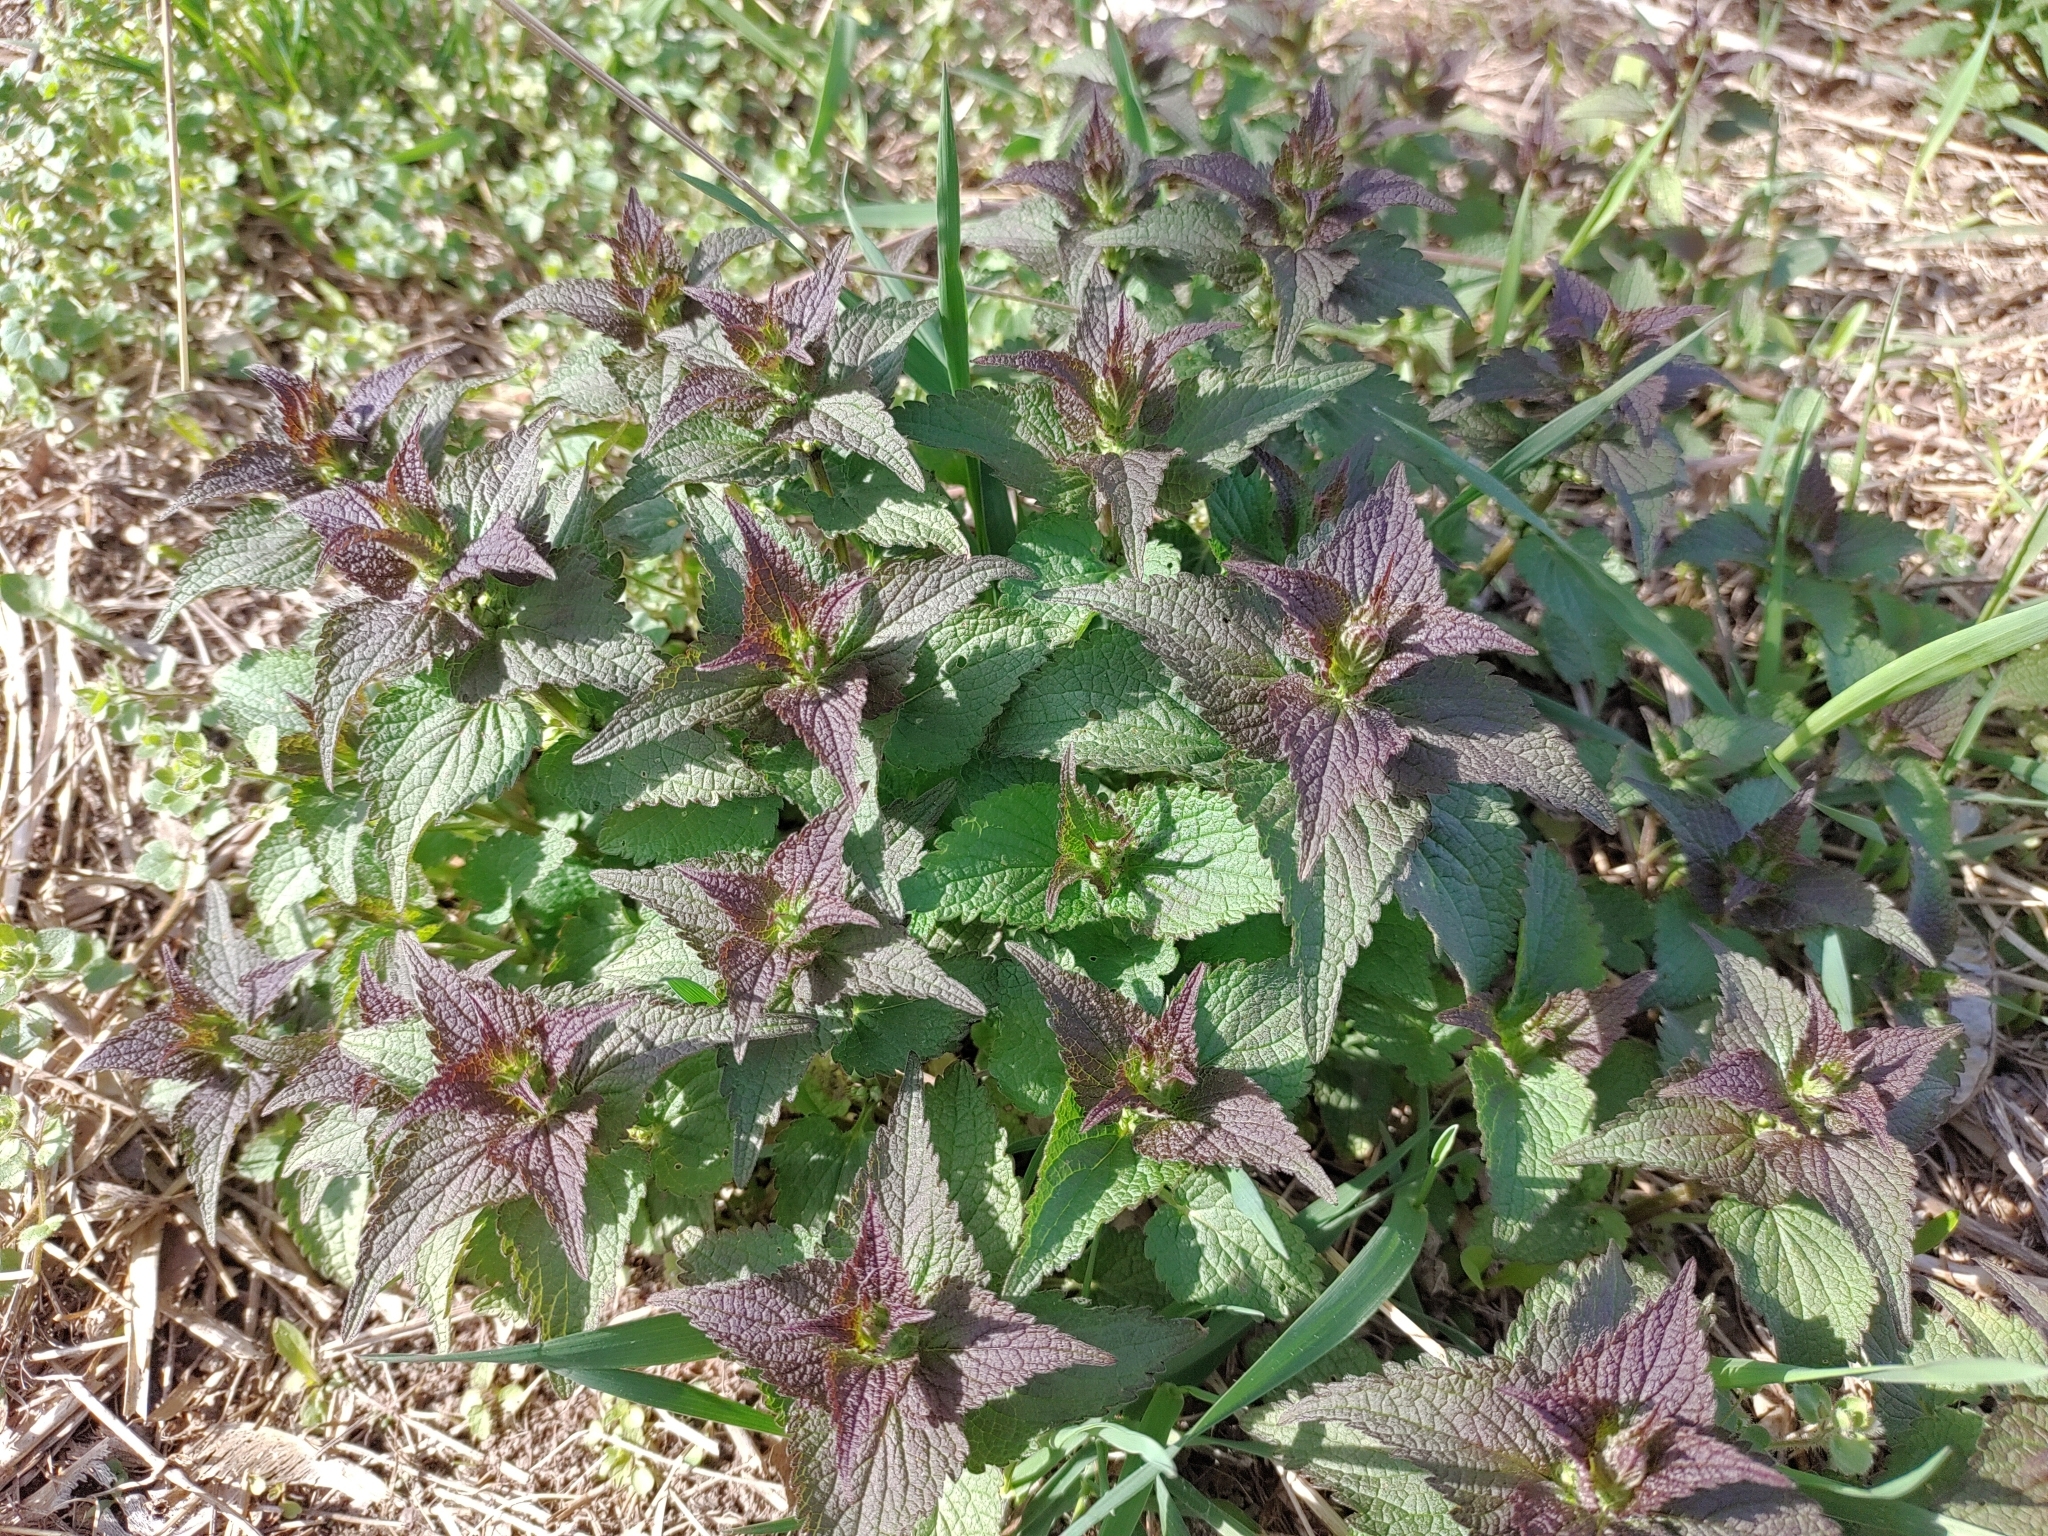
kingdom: Plantae
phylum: Tracheophyta
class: Magnoliopsida
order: Lamiales
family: Lamiaceae
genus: Lamium
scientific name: Lamium album
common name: White dead-nettle
